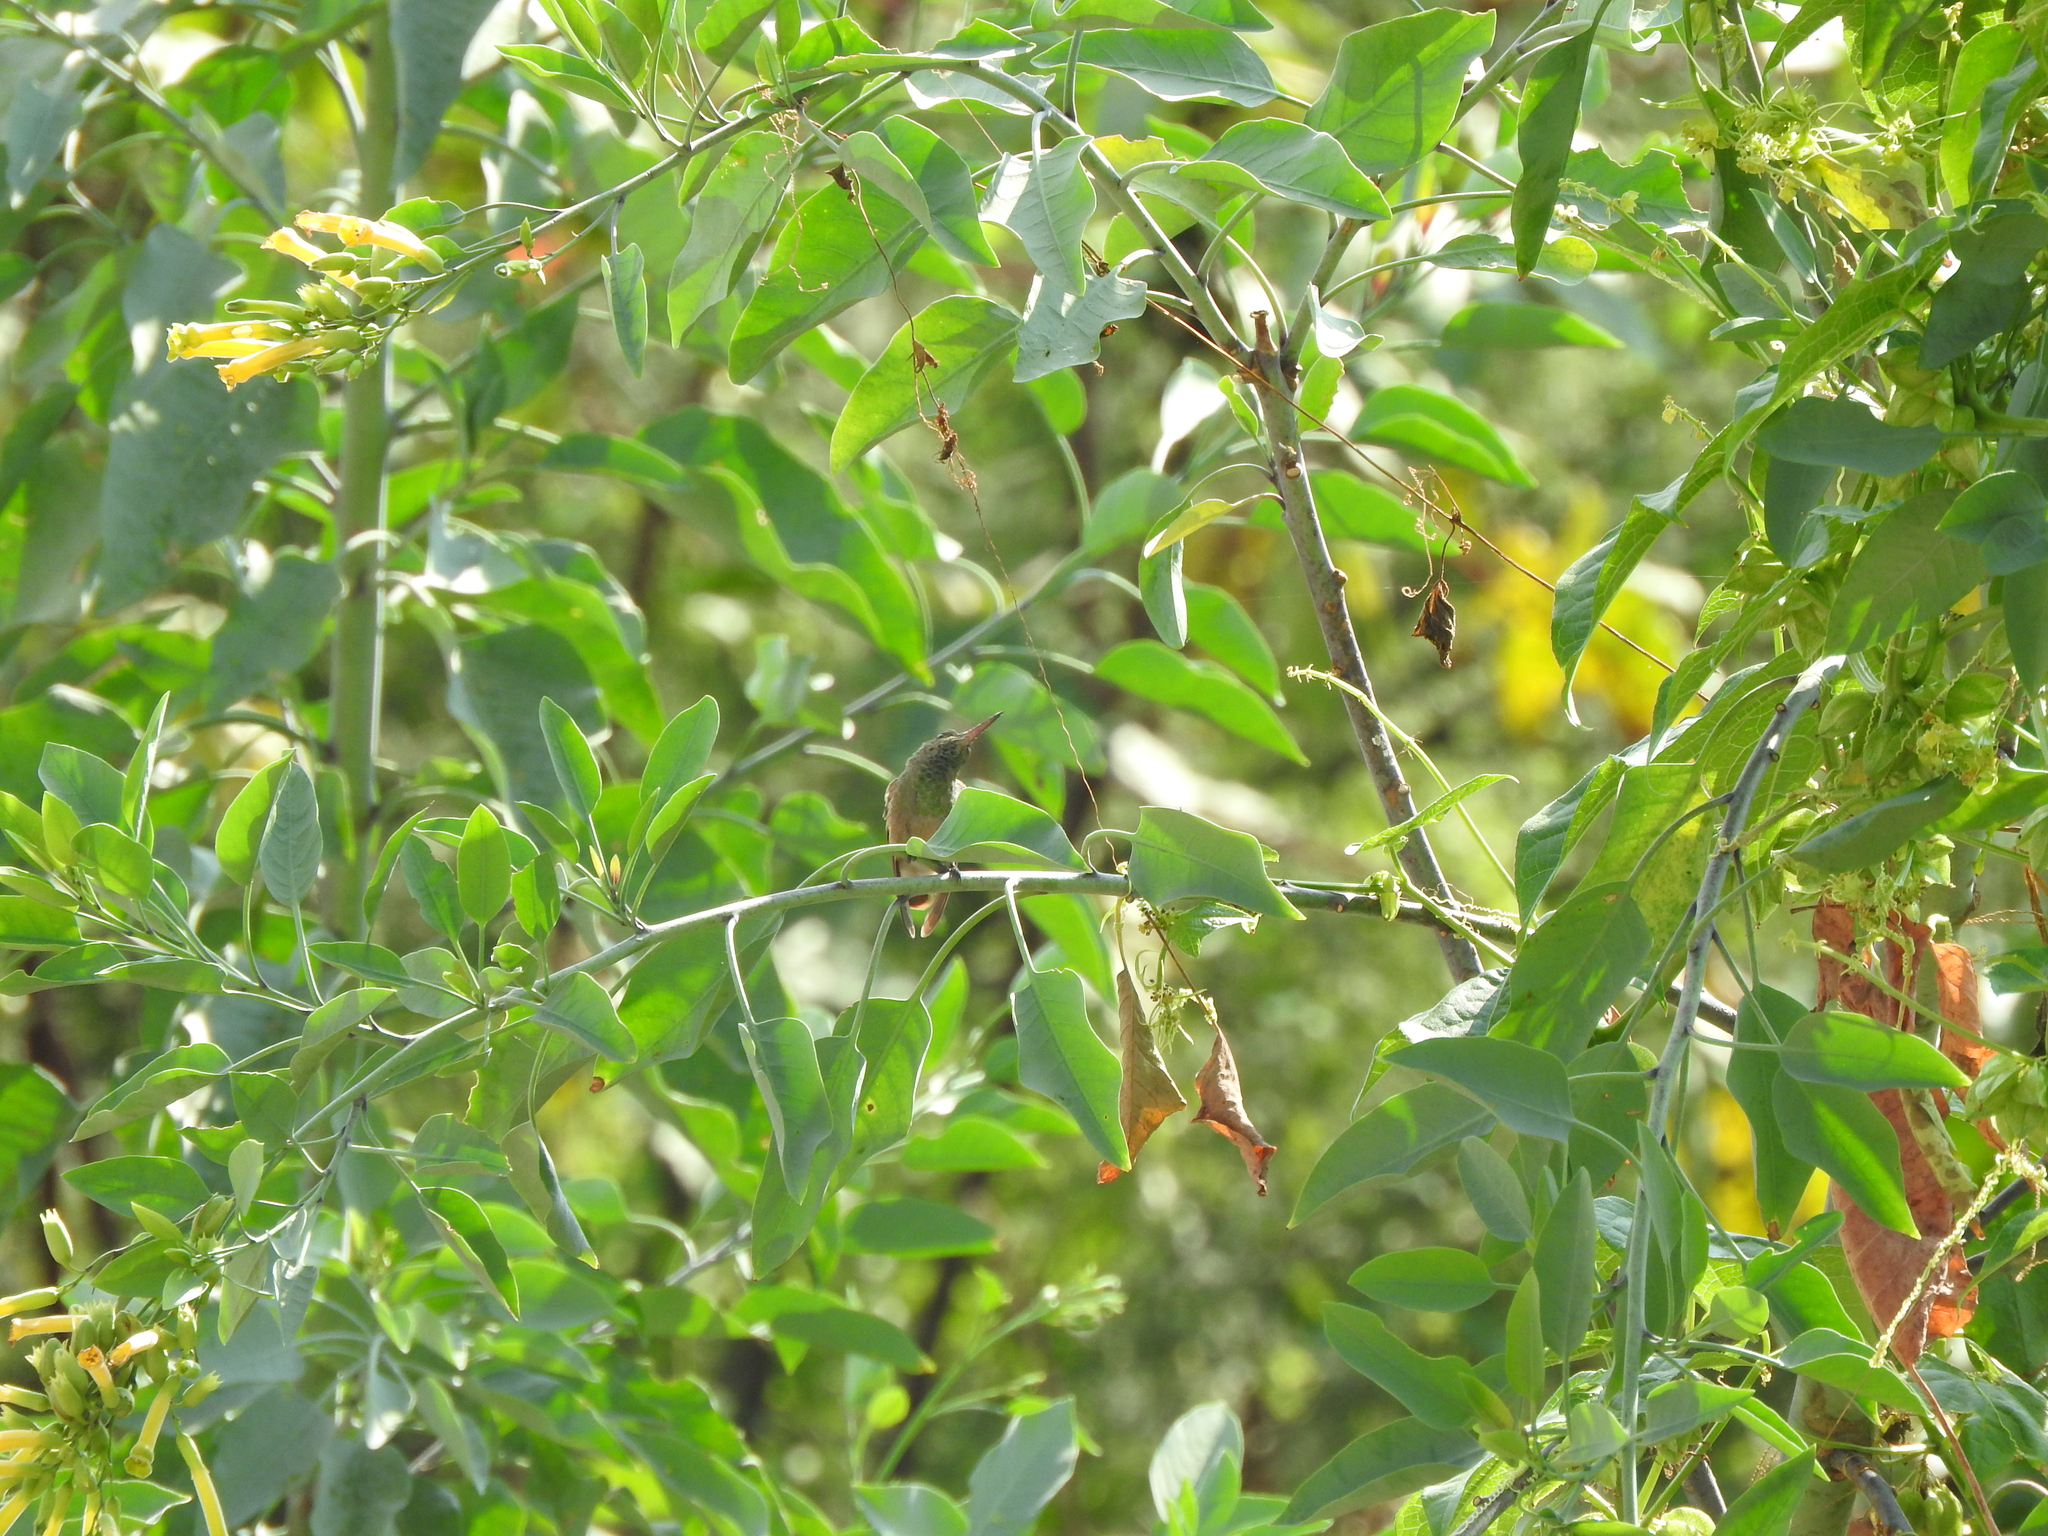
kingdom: Animalia
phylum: Chordata
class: Aves
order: Apodiformes
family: Trochilidae
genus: Saucerottia
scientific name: Saucerottia beryllina
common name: Berylline hummingbird
